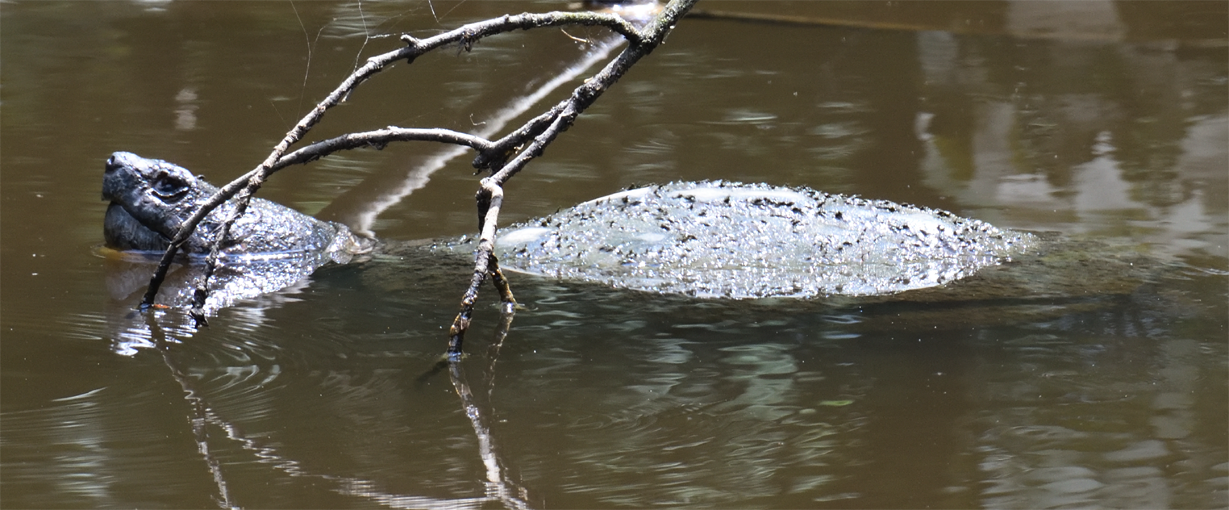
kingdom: Animalia
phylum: Chordata
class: Testudines
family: Chelydridae
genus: Chelydra
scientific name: Chelydra serpentina
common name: Common snapping turtle
